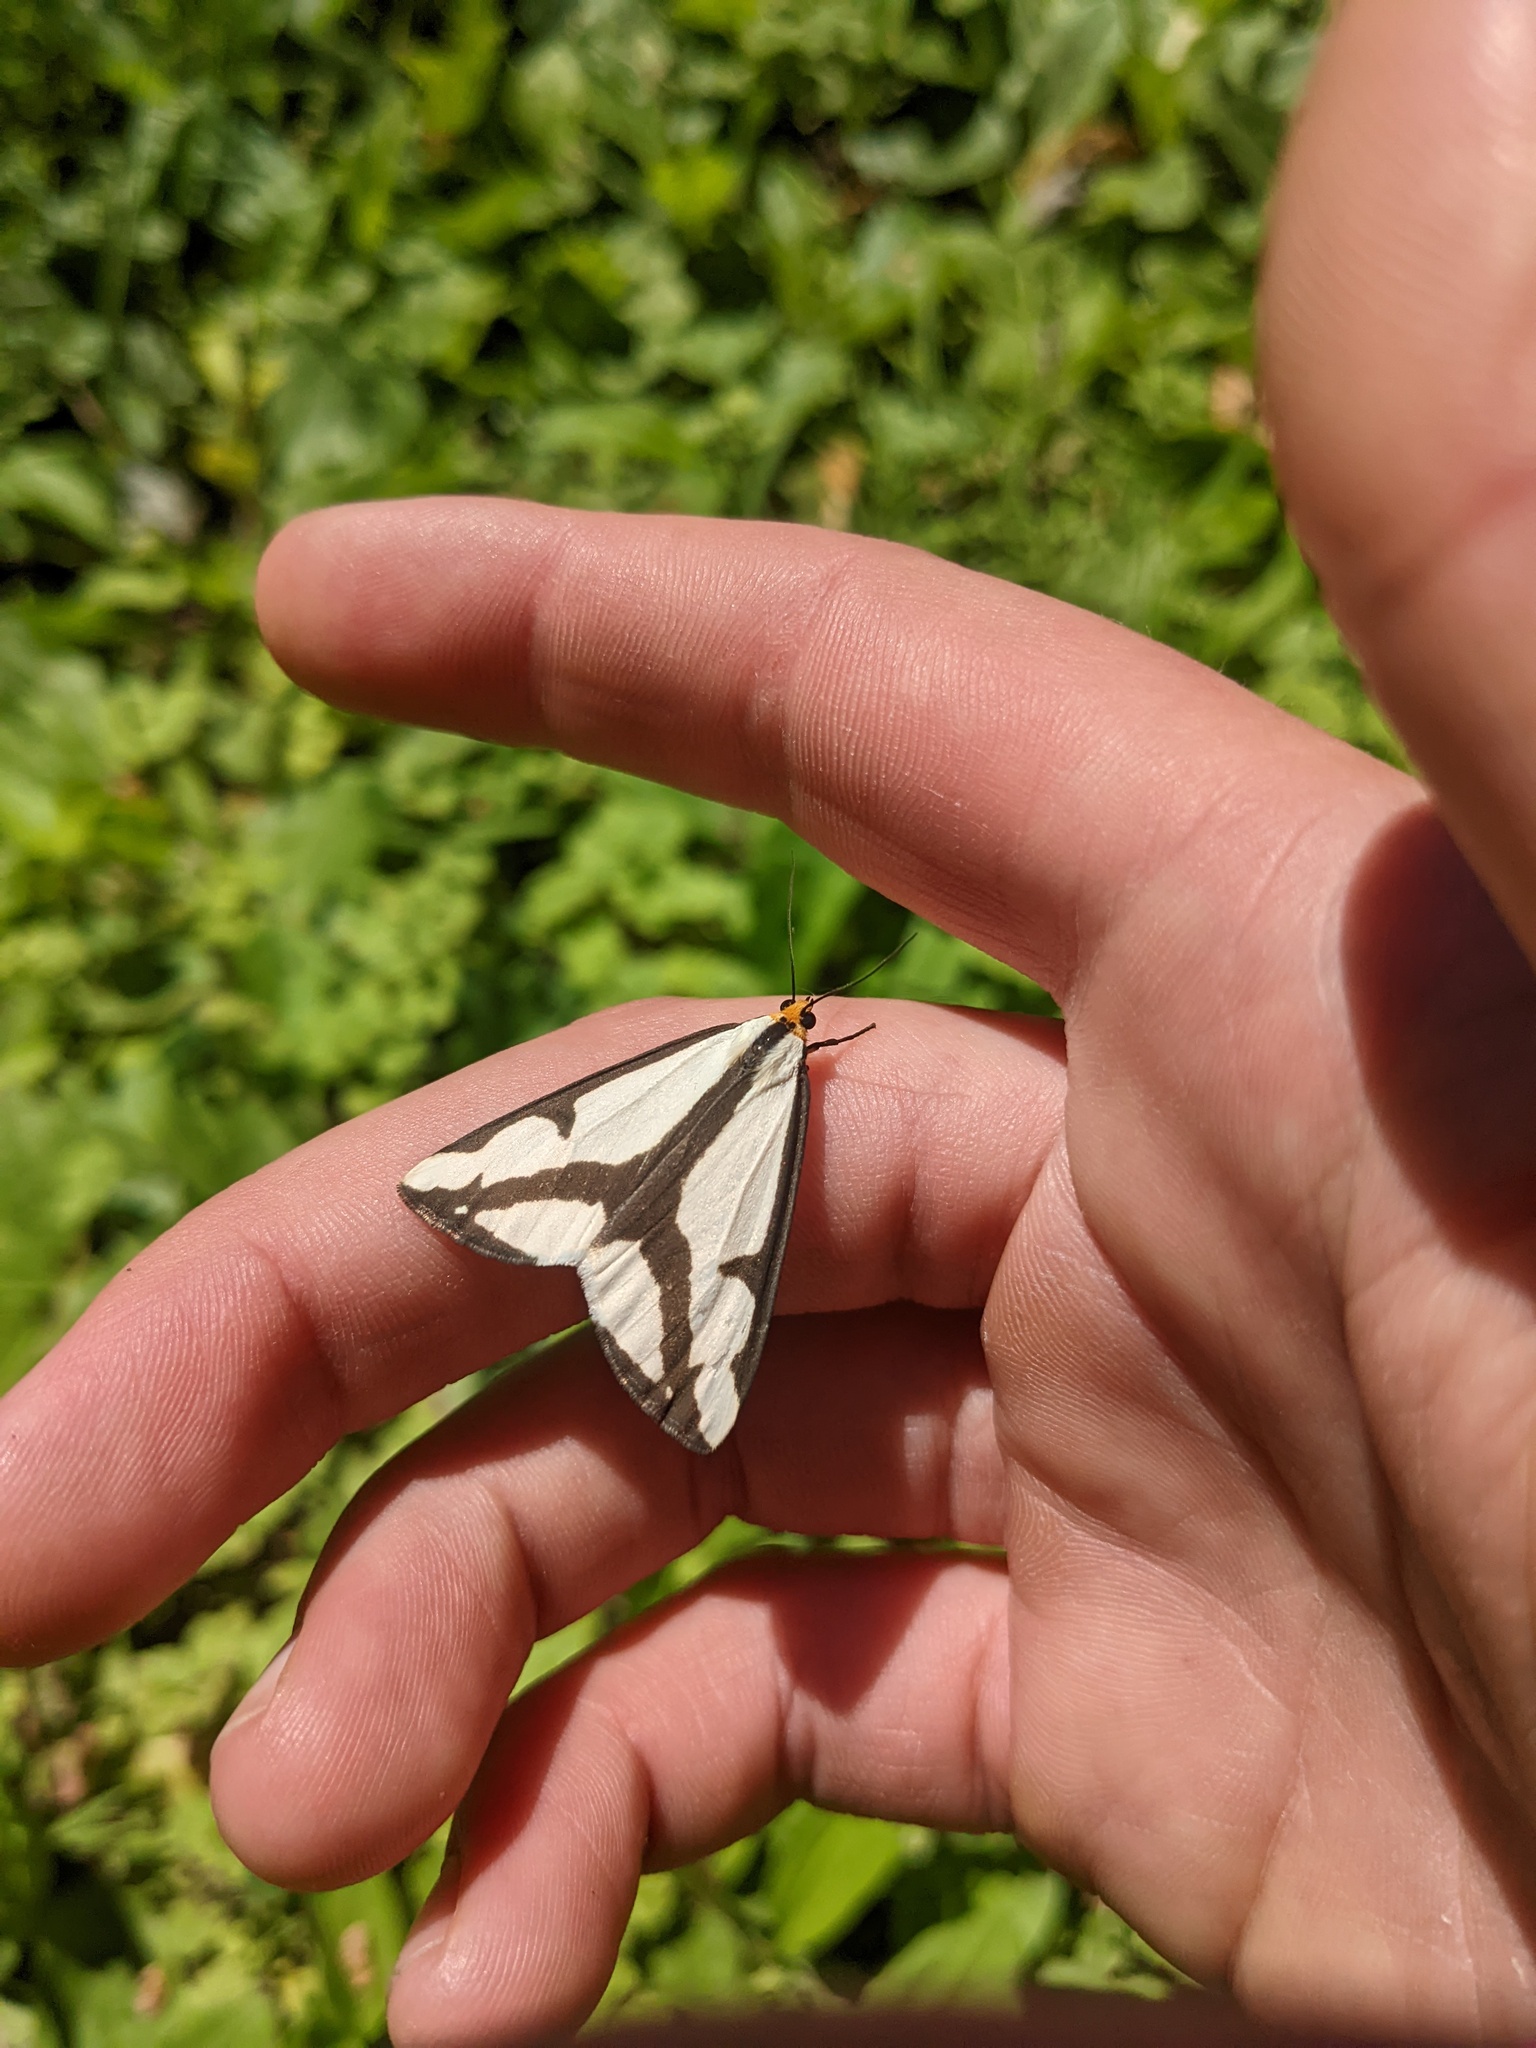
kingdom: Animalia
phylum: Arthropoda
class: Insecta
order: Lepidoptera
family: Erebidae
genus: Haploa
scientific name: Haploa lecontei
